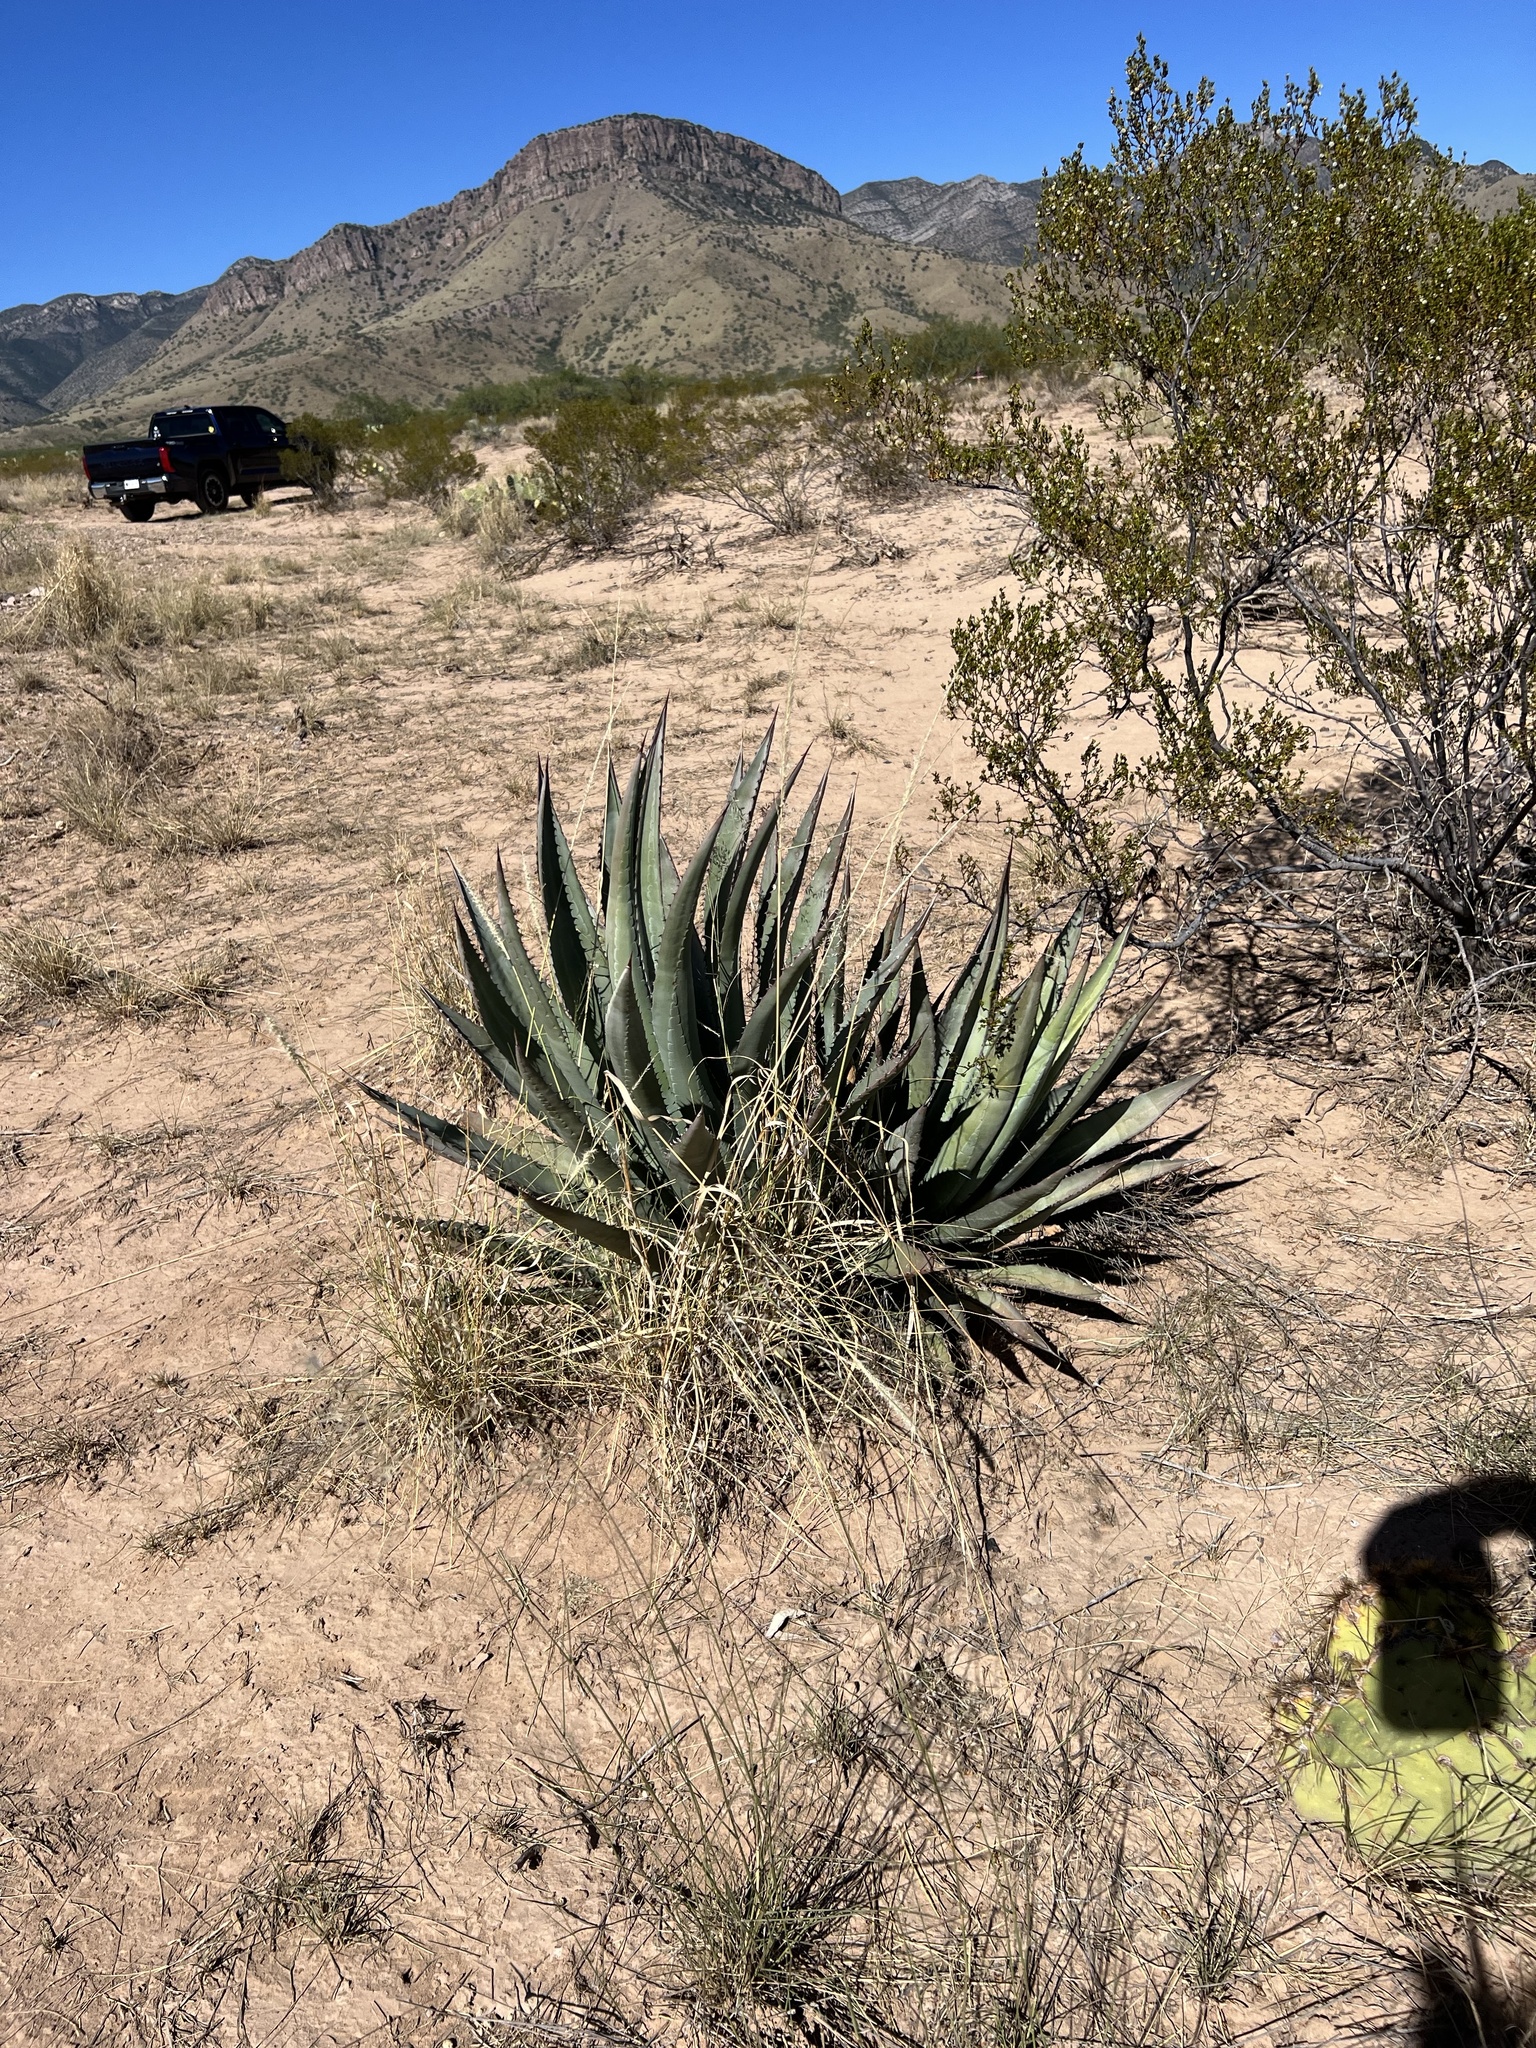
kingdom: Plantae
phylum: Tracheophyta
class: Liliopsida
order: Asparagales
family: Asparagaceae
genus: Agave
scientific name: Agave palmeri
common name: Palmer agave
